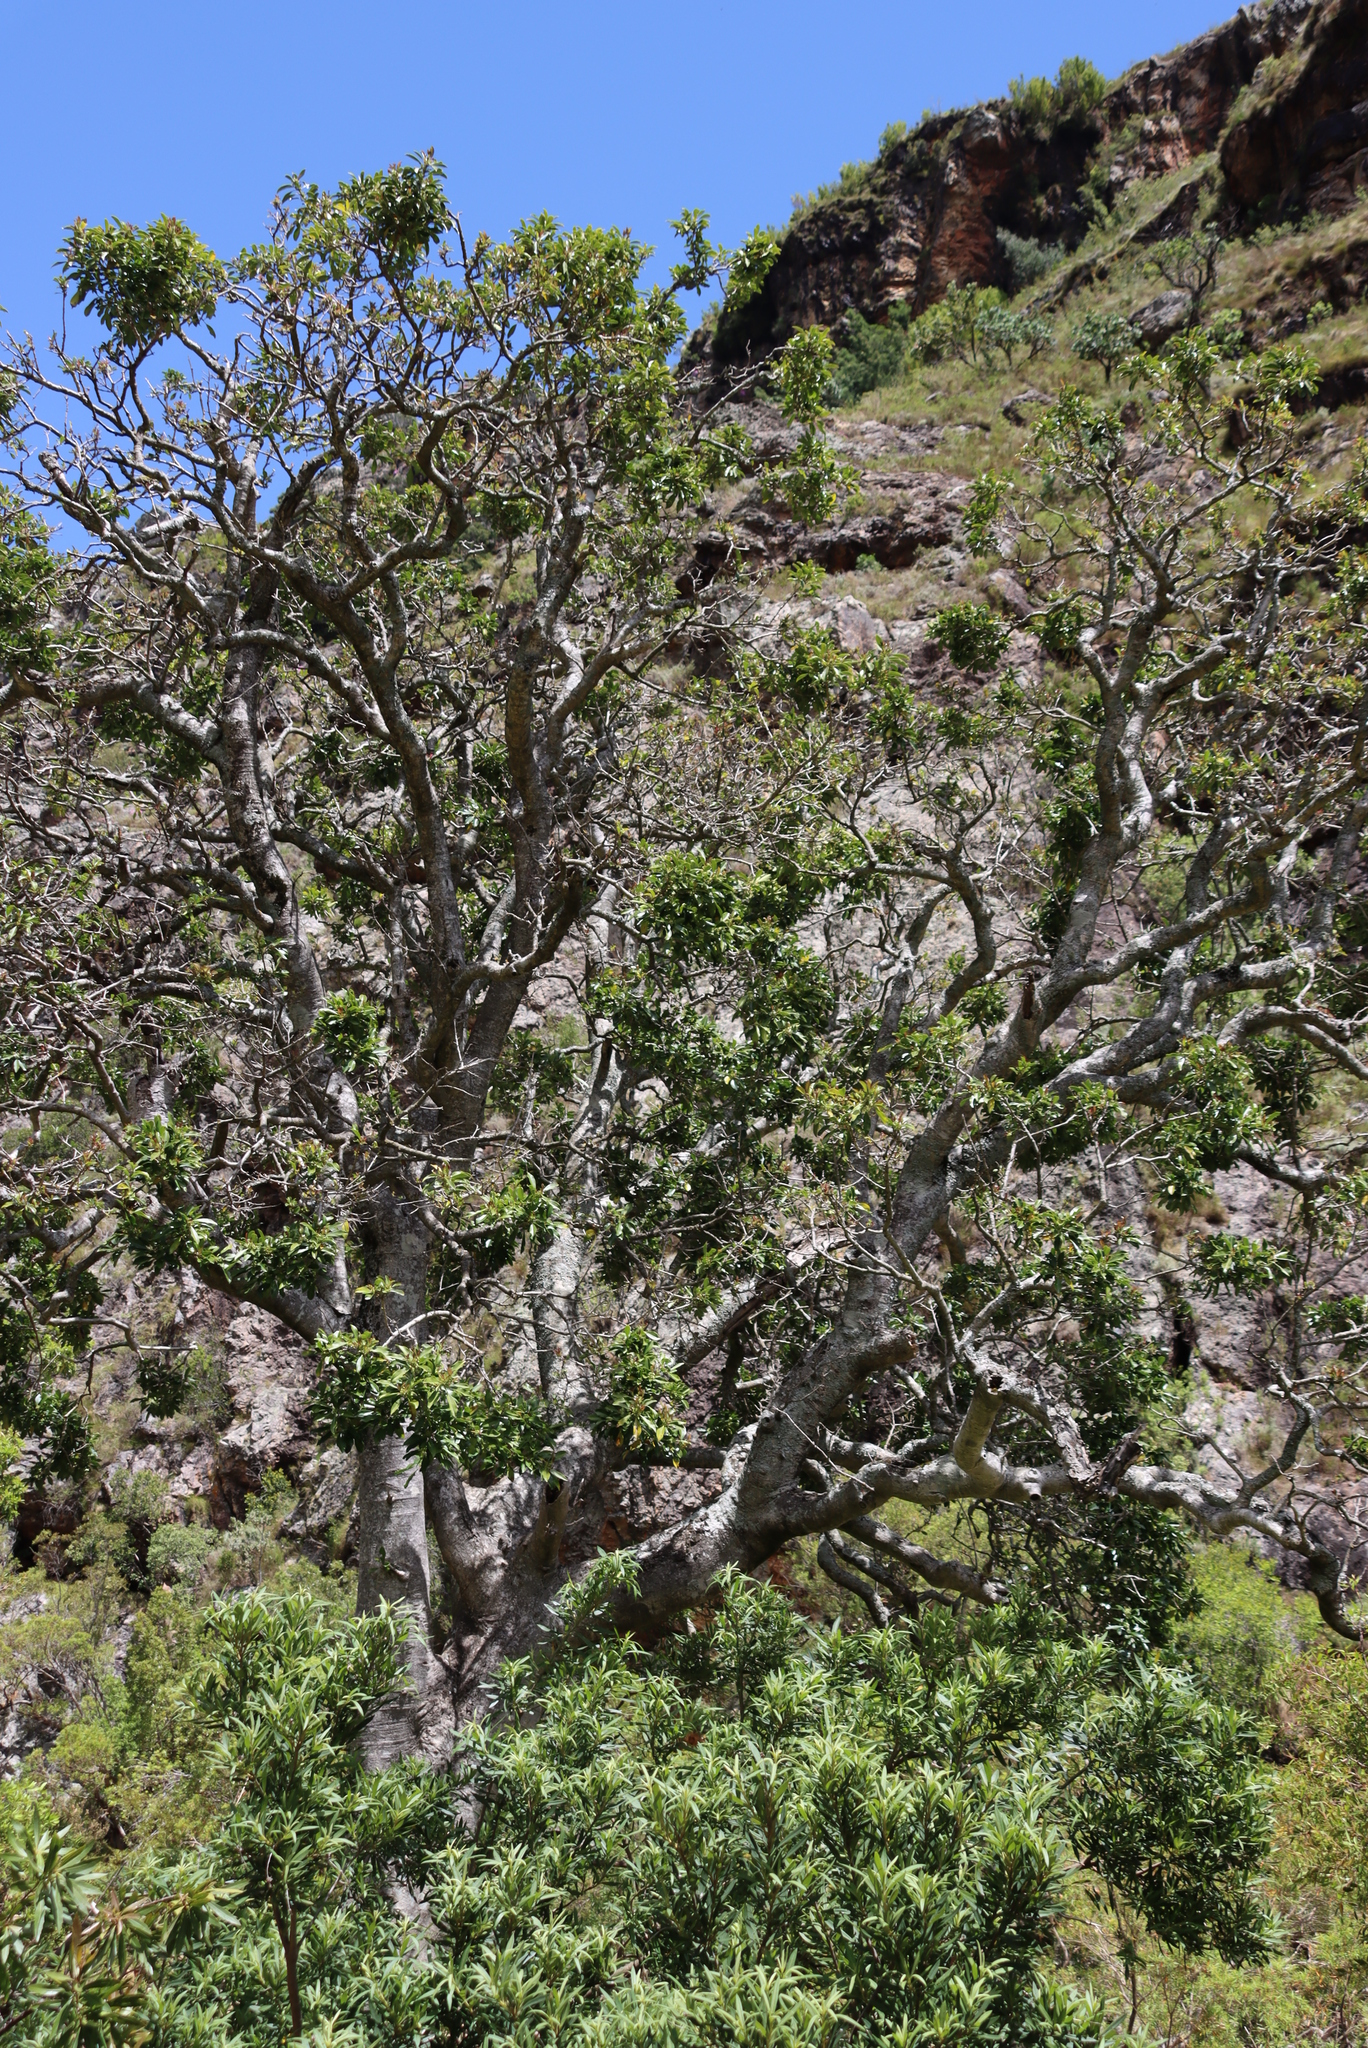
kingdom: Plantae
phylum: Tracheophyta
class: Magnoliopsida
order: Aquifoliales
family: Aquifoliaceae
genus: Ilex
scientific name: Ilex mitis
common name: African holly
